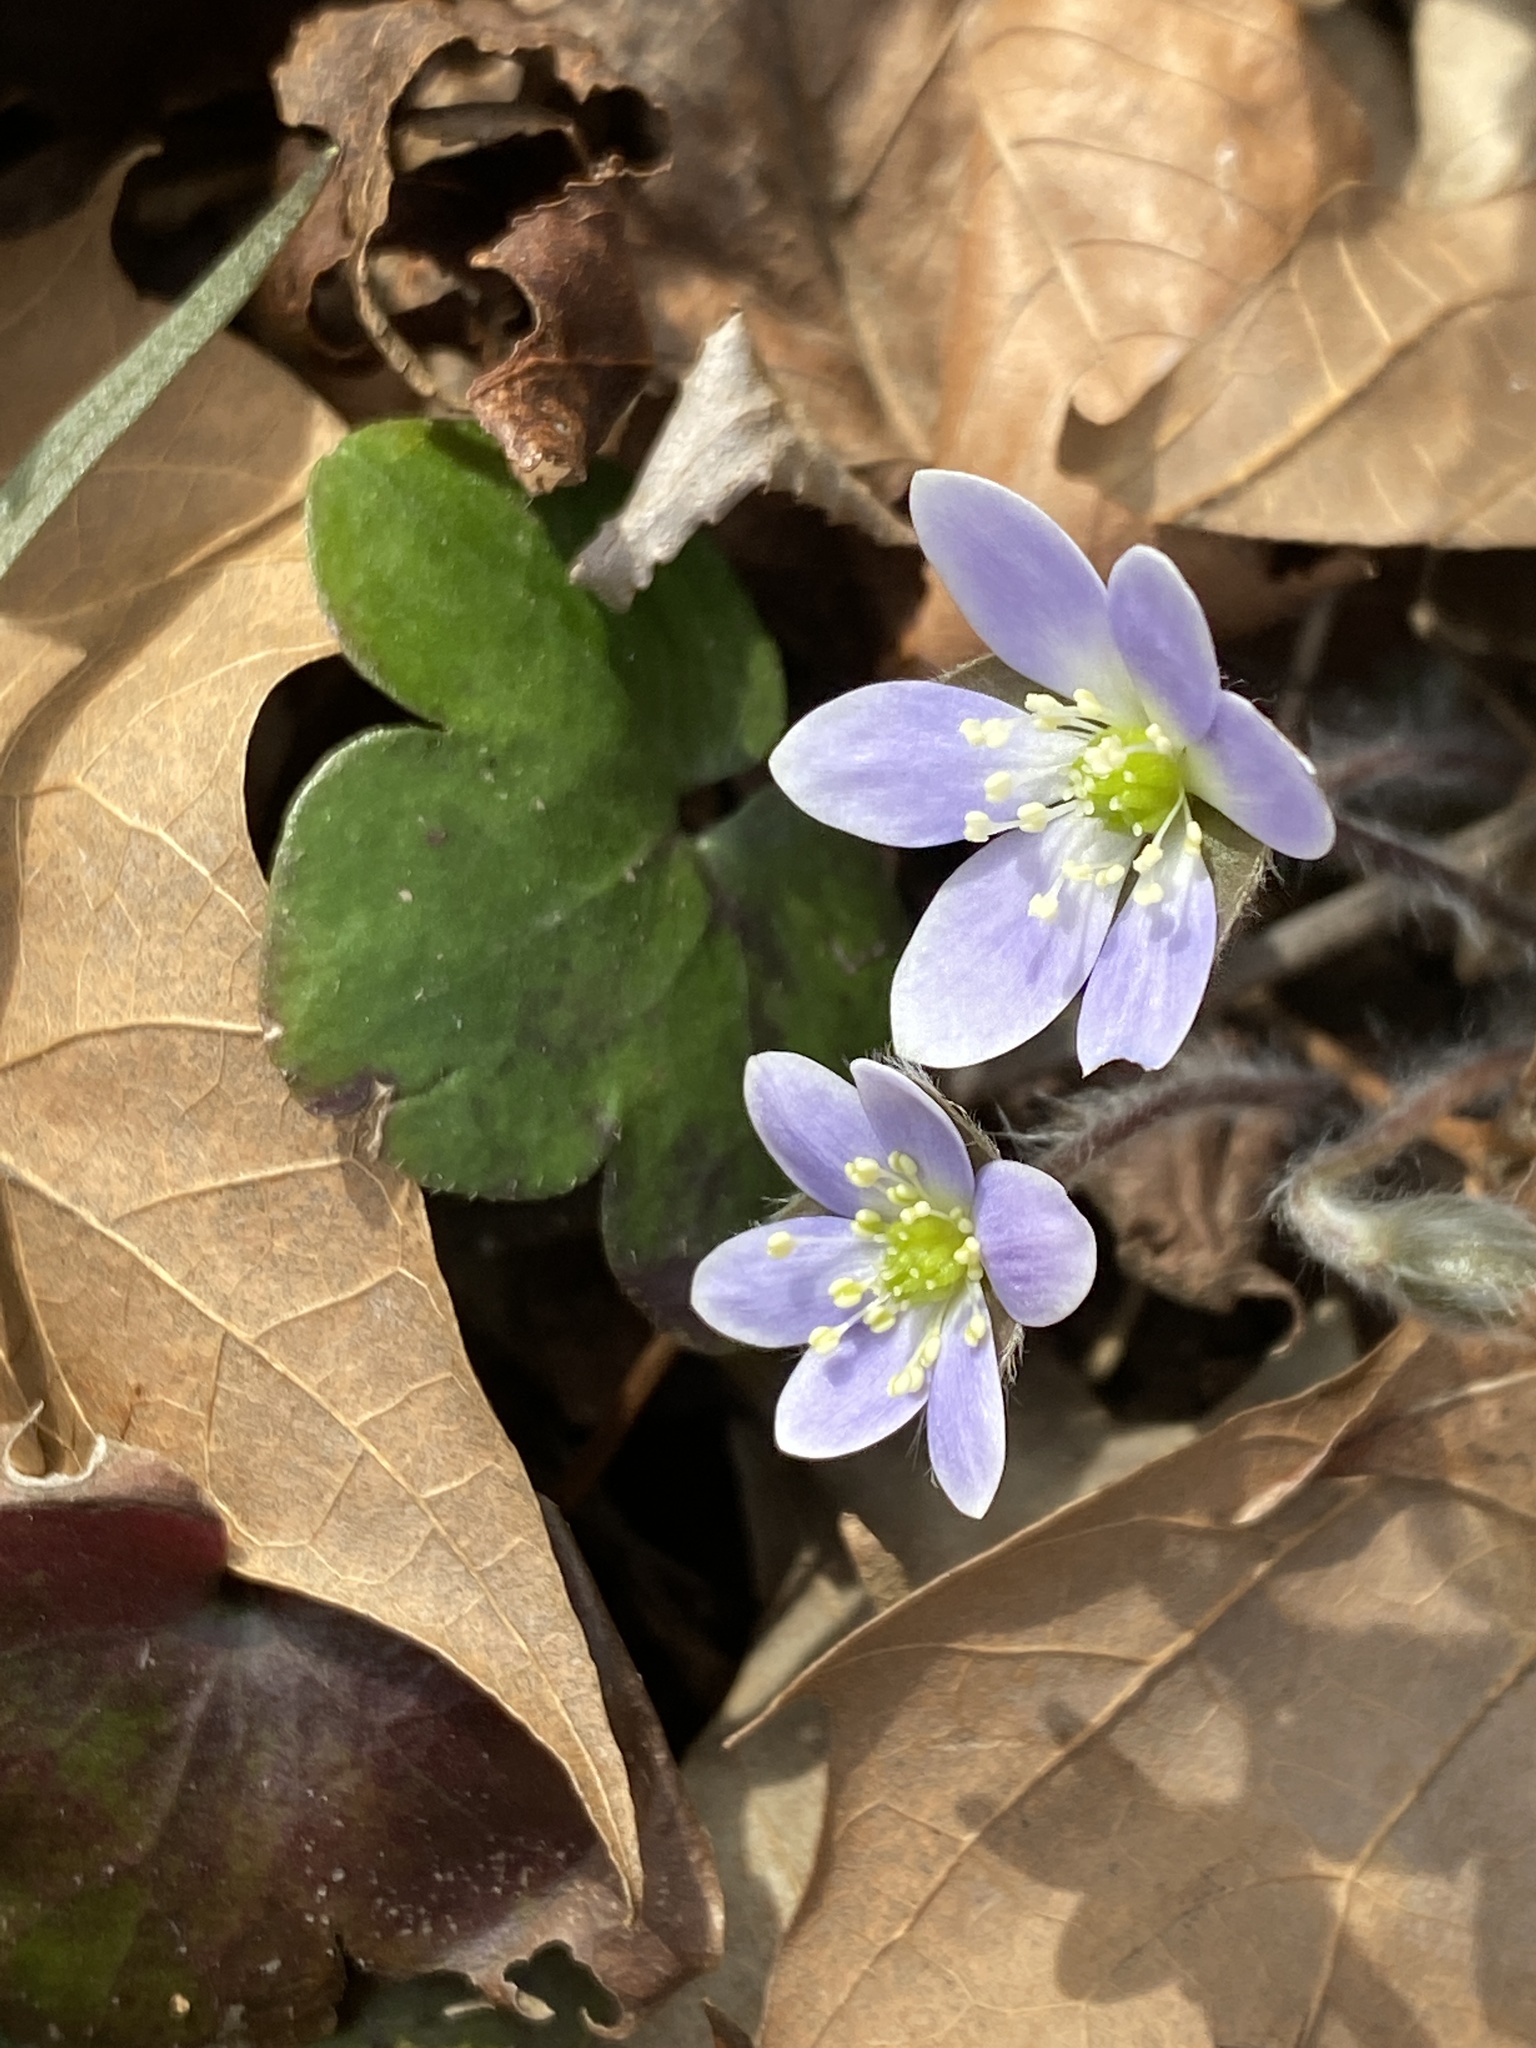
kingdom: Plantae
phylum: Tracheophyta
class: Magnoliopsida
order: Ranunculales
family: Ranunculaceae
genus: Hepatica
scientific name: Hepatica americana
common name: American hepatica
